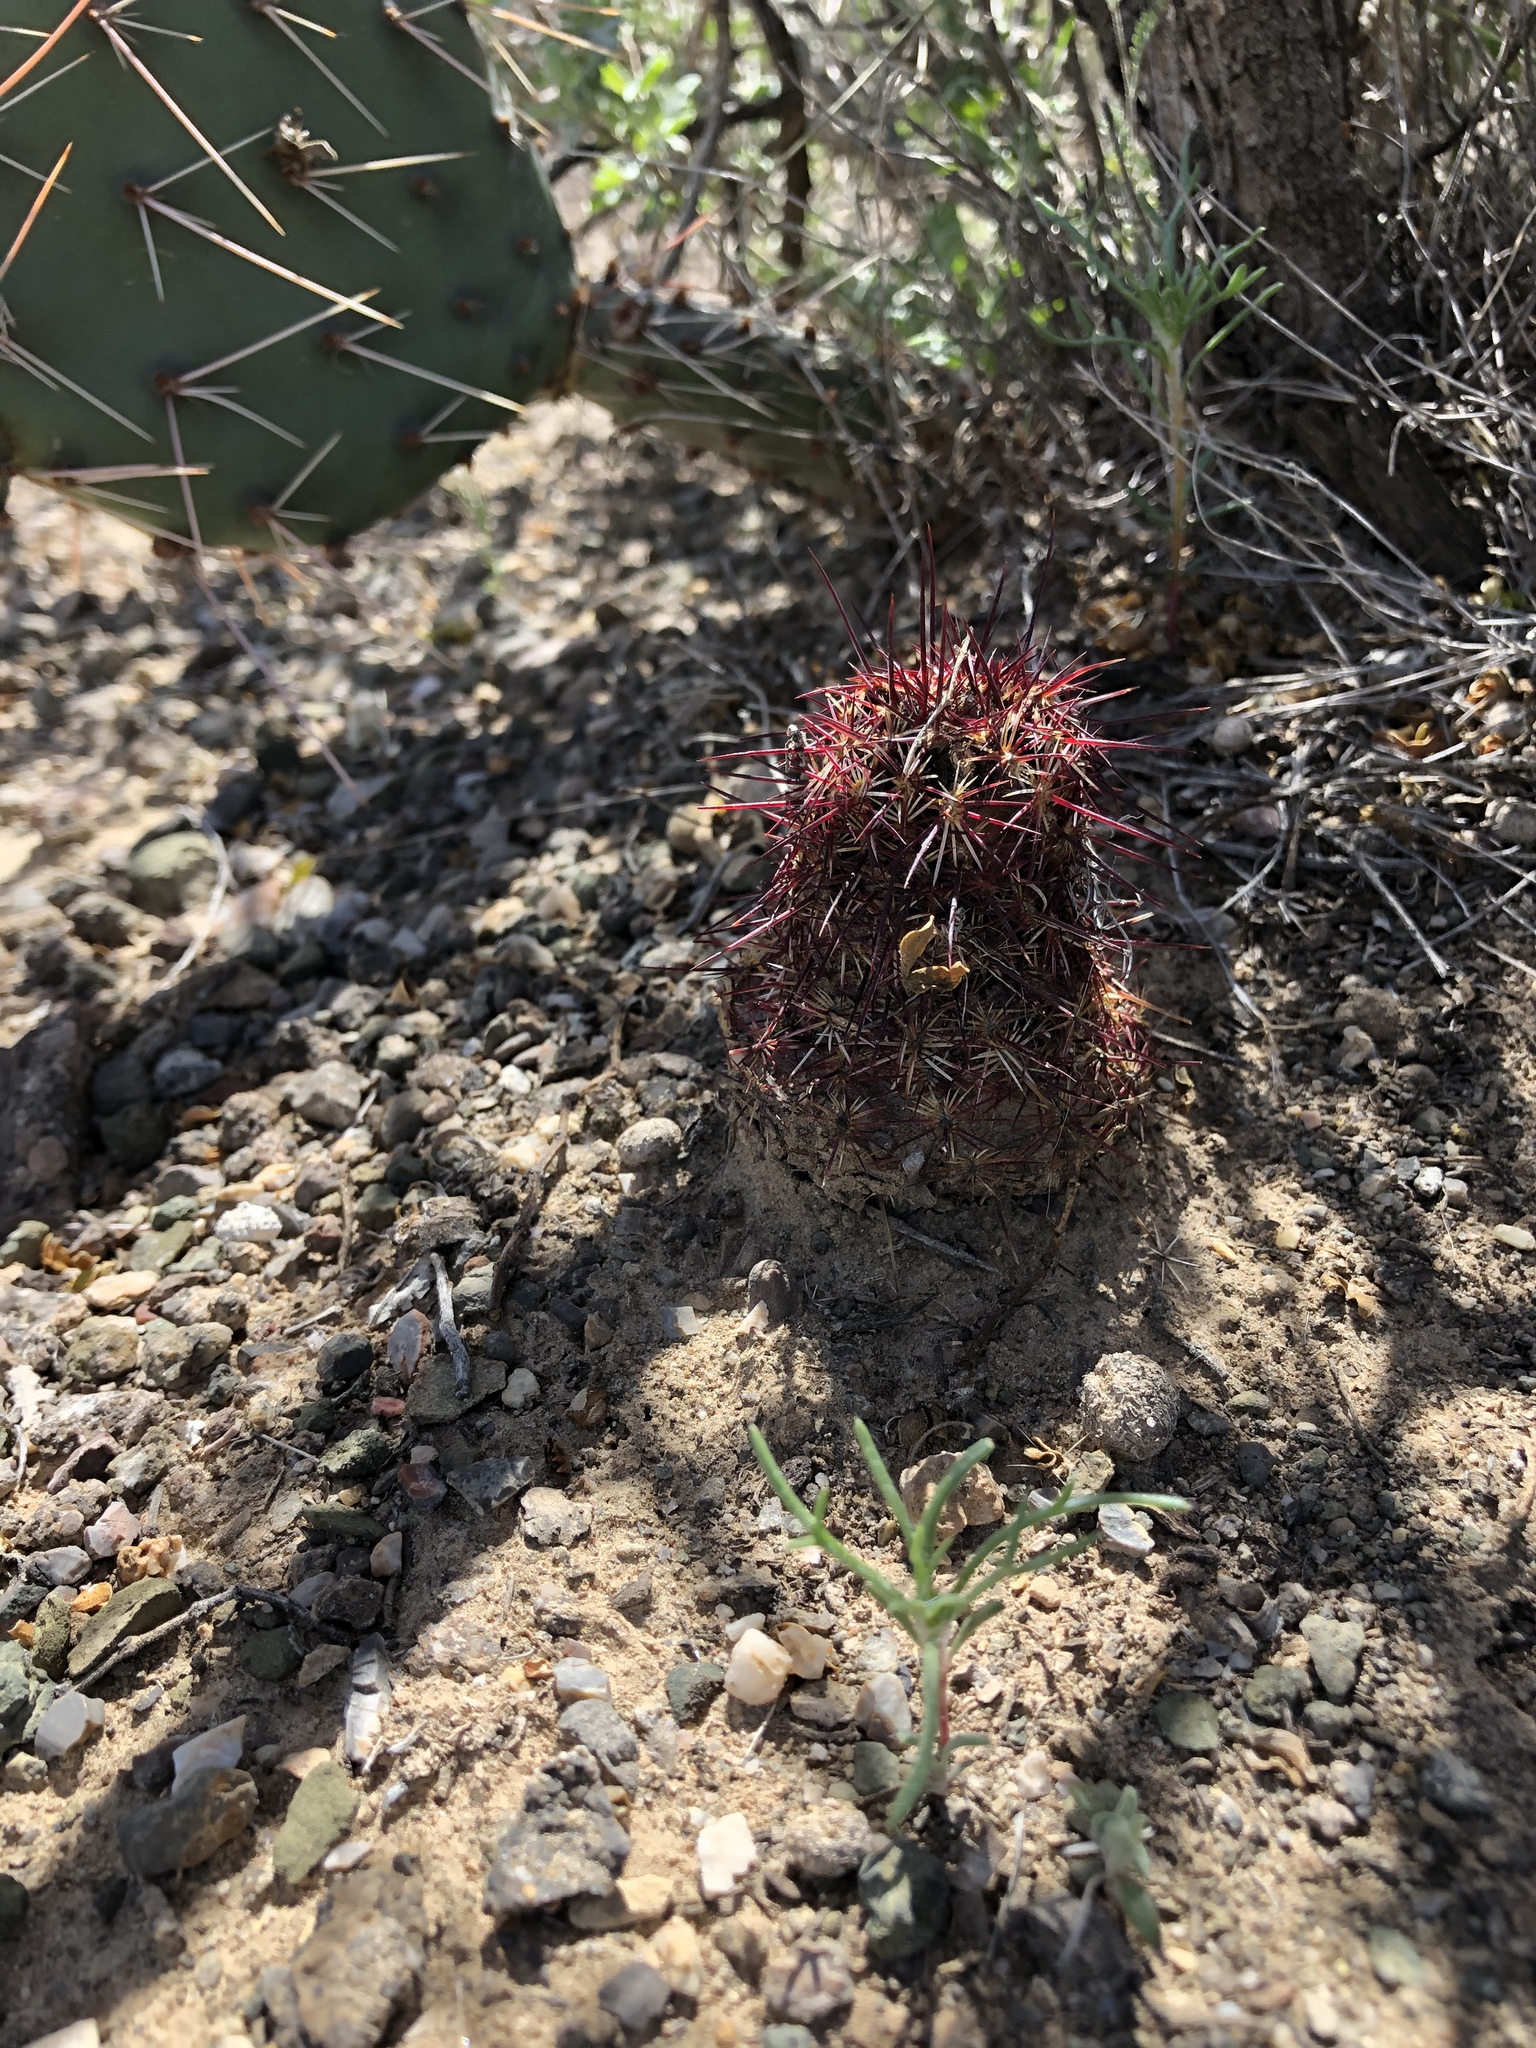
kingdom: Plantae
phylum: Tracheophyta
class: Magnoliopsida
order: Caryophyllales
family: Cactaceae
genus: Echinocereus
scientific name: Echinocereus viridiflorus
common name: Nylon hedgehog cactus
